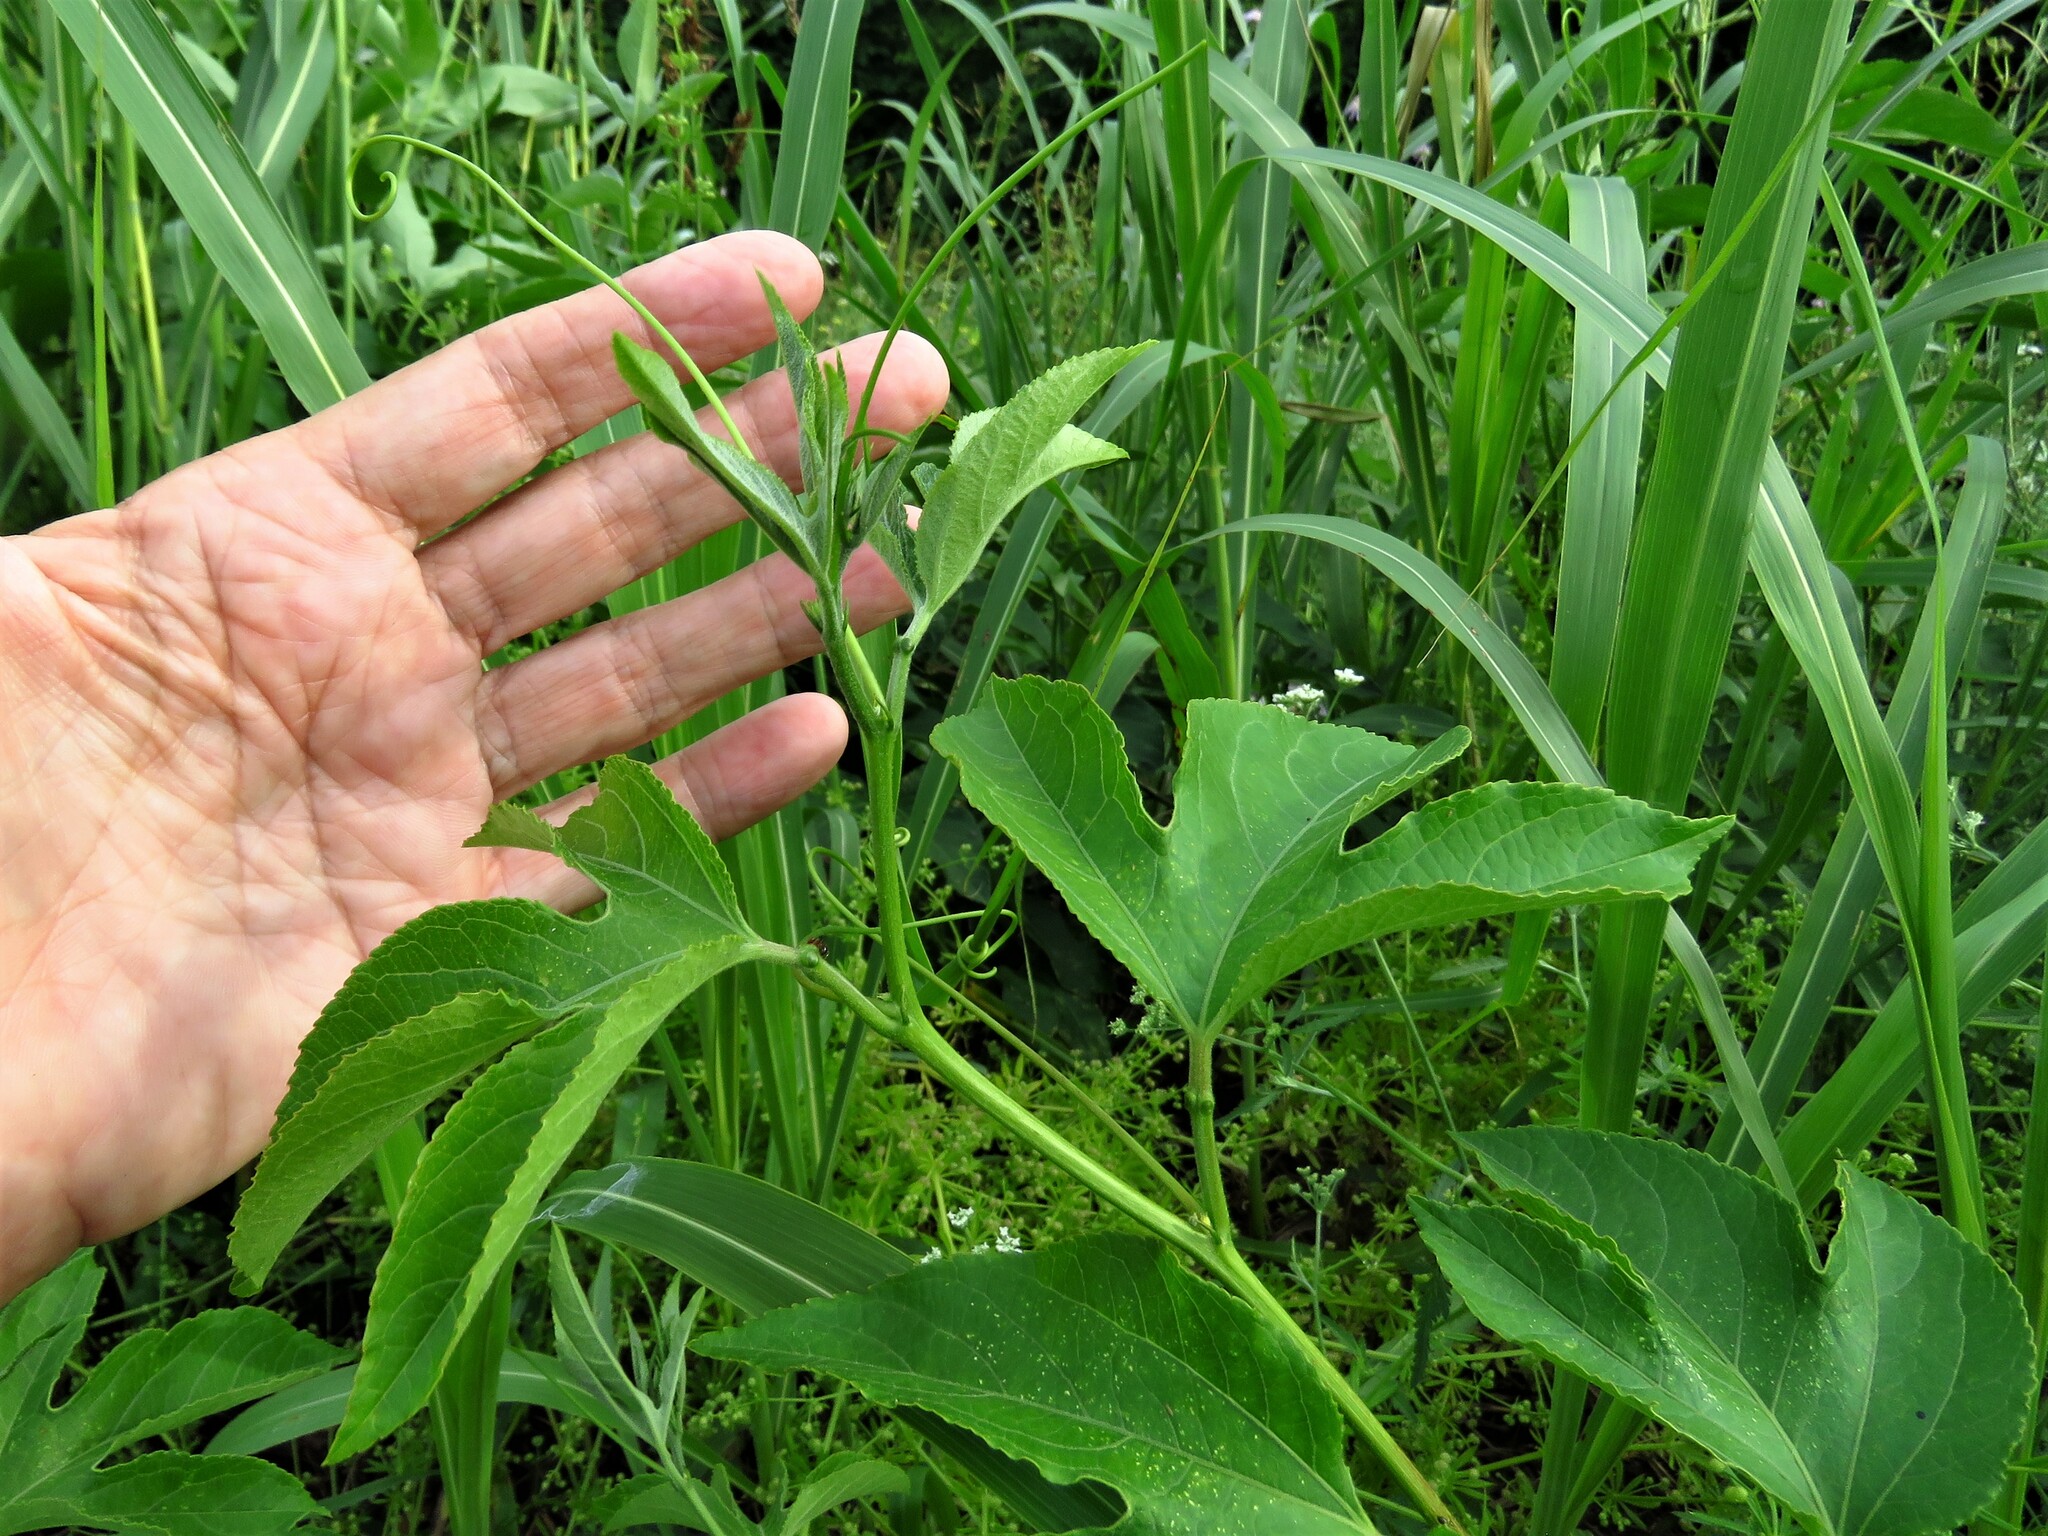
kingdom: Plantae
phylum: Tracheophyta
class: Magnoliopsida
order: Malpighiales
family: Passifloraceae
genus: Passiflora
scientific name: Passiflora incarnata
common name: Apricot-vine
